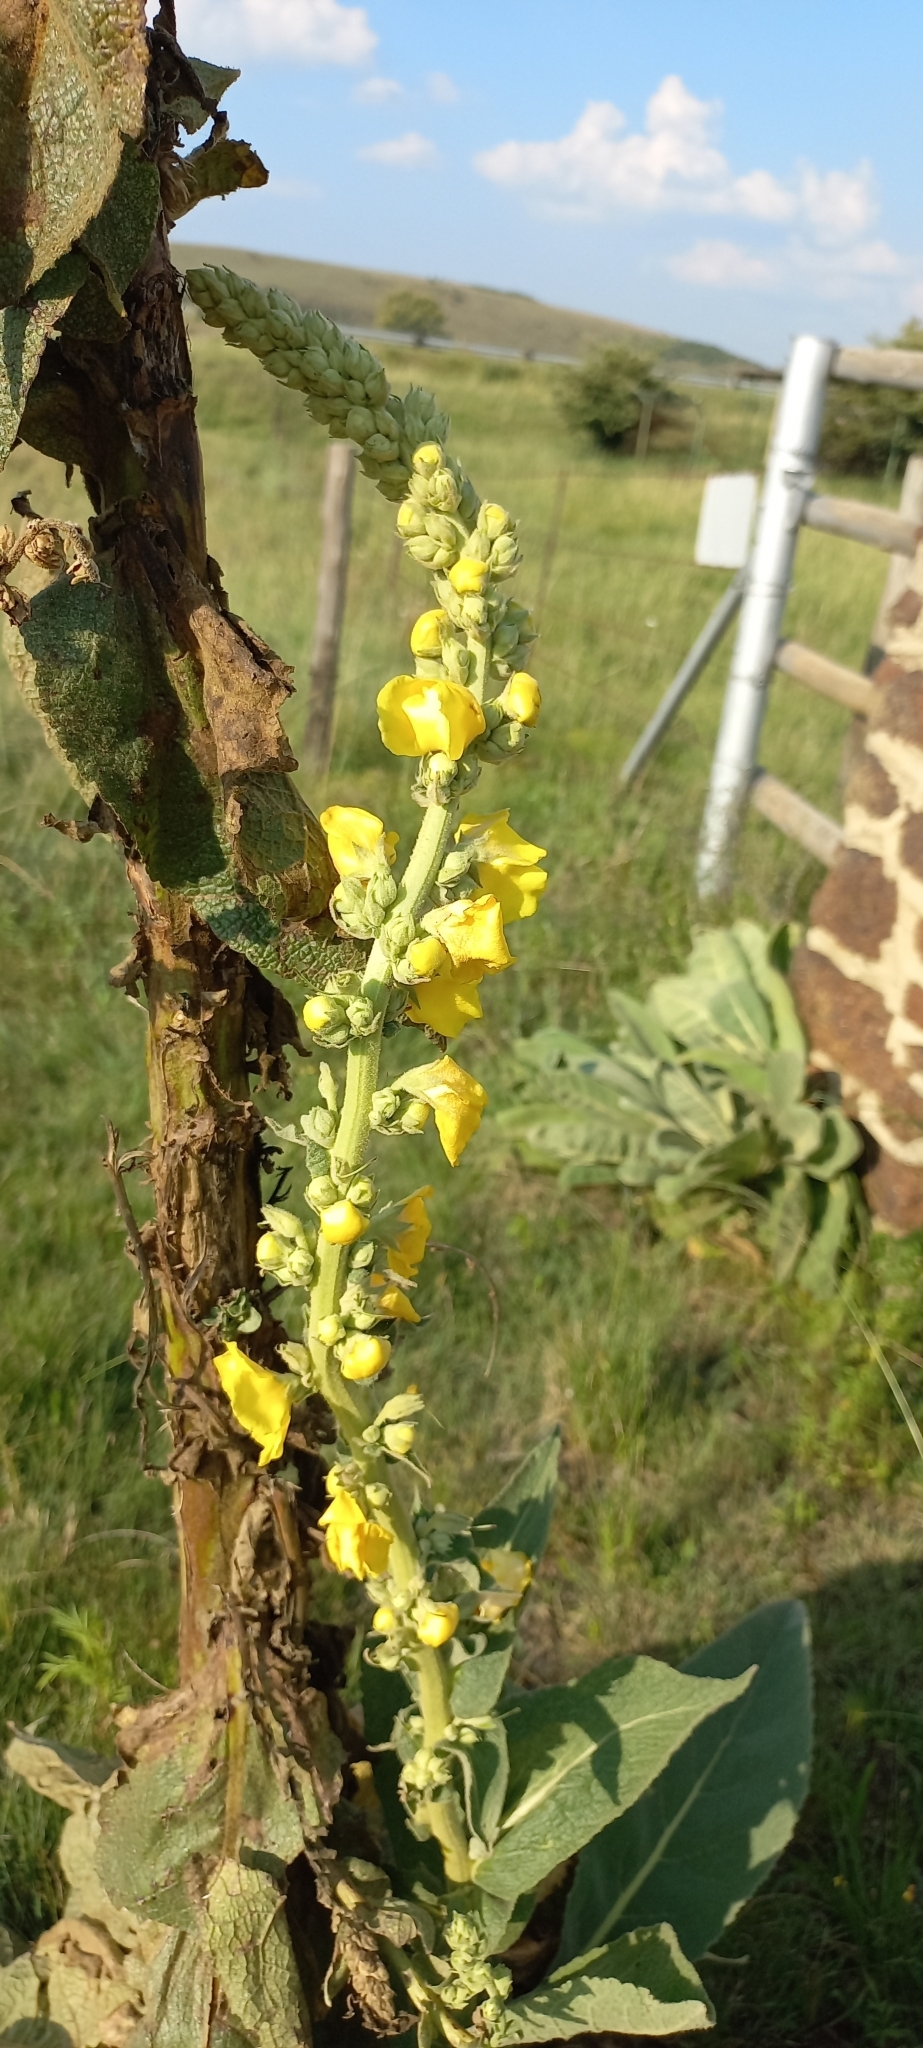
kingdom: Plantae
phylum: Tracheophyta
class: Magnoliopsida
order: Lamiales
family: Scrophulariaceae
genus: Verbascum
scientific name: Verbascum densiflorum
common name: Dense-flowered mullein
